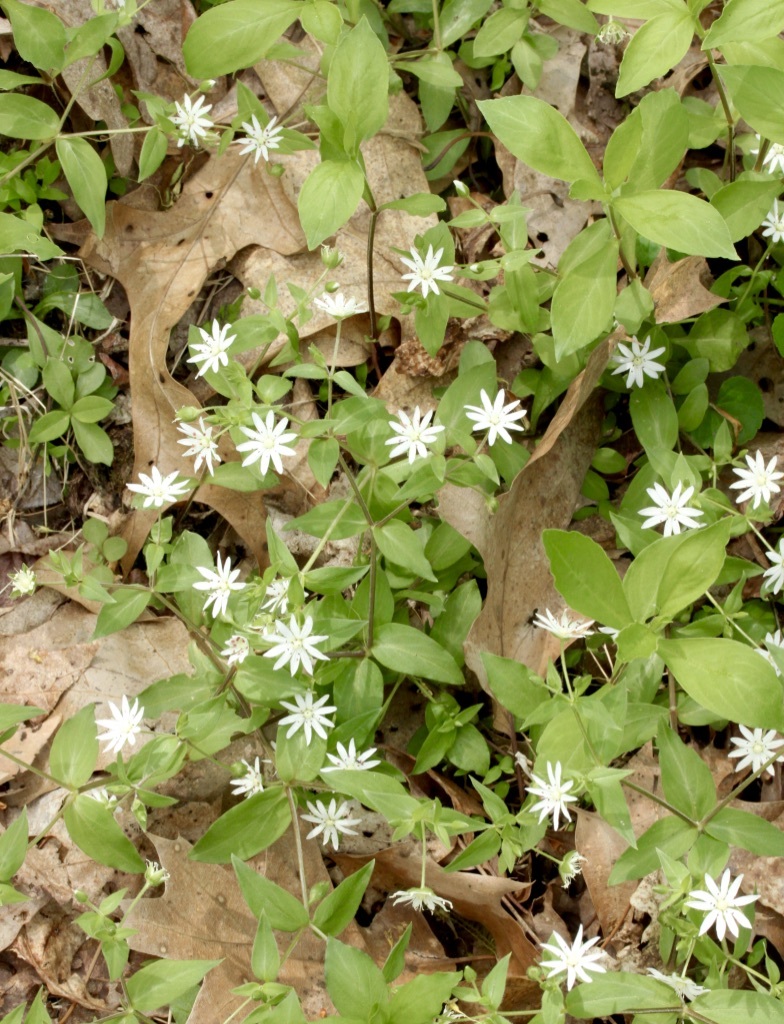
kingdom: Plantae
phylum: Tracheophyta
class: Magnoliopsida
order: Caryophyllales
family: Caryophyllaceae
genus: Stellaria
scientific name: Stellaria pubera
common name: Star chickweed
